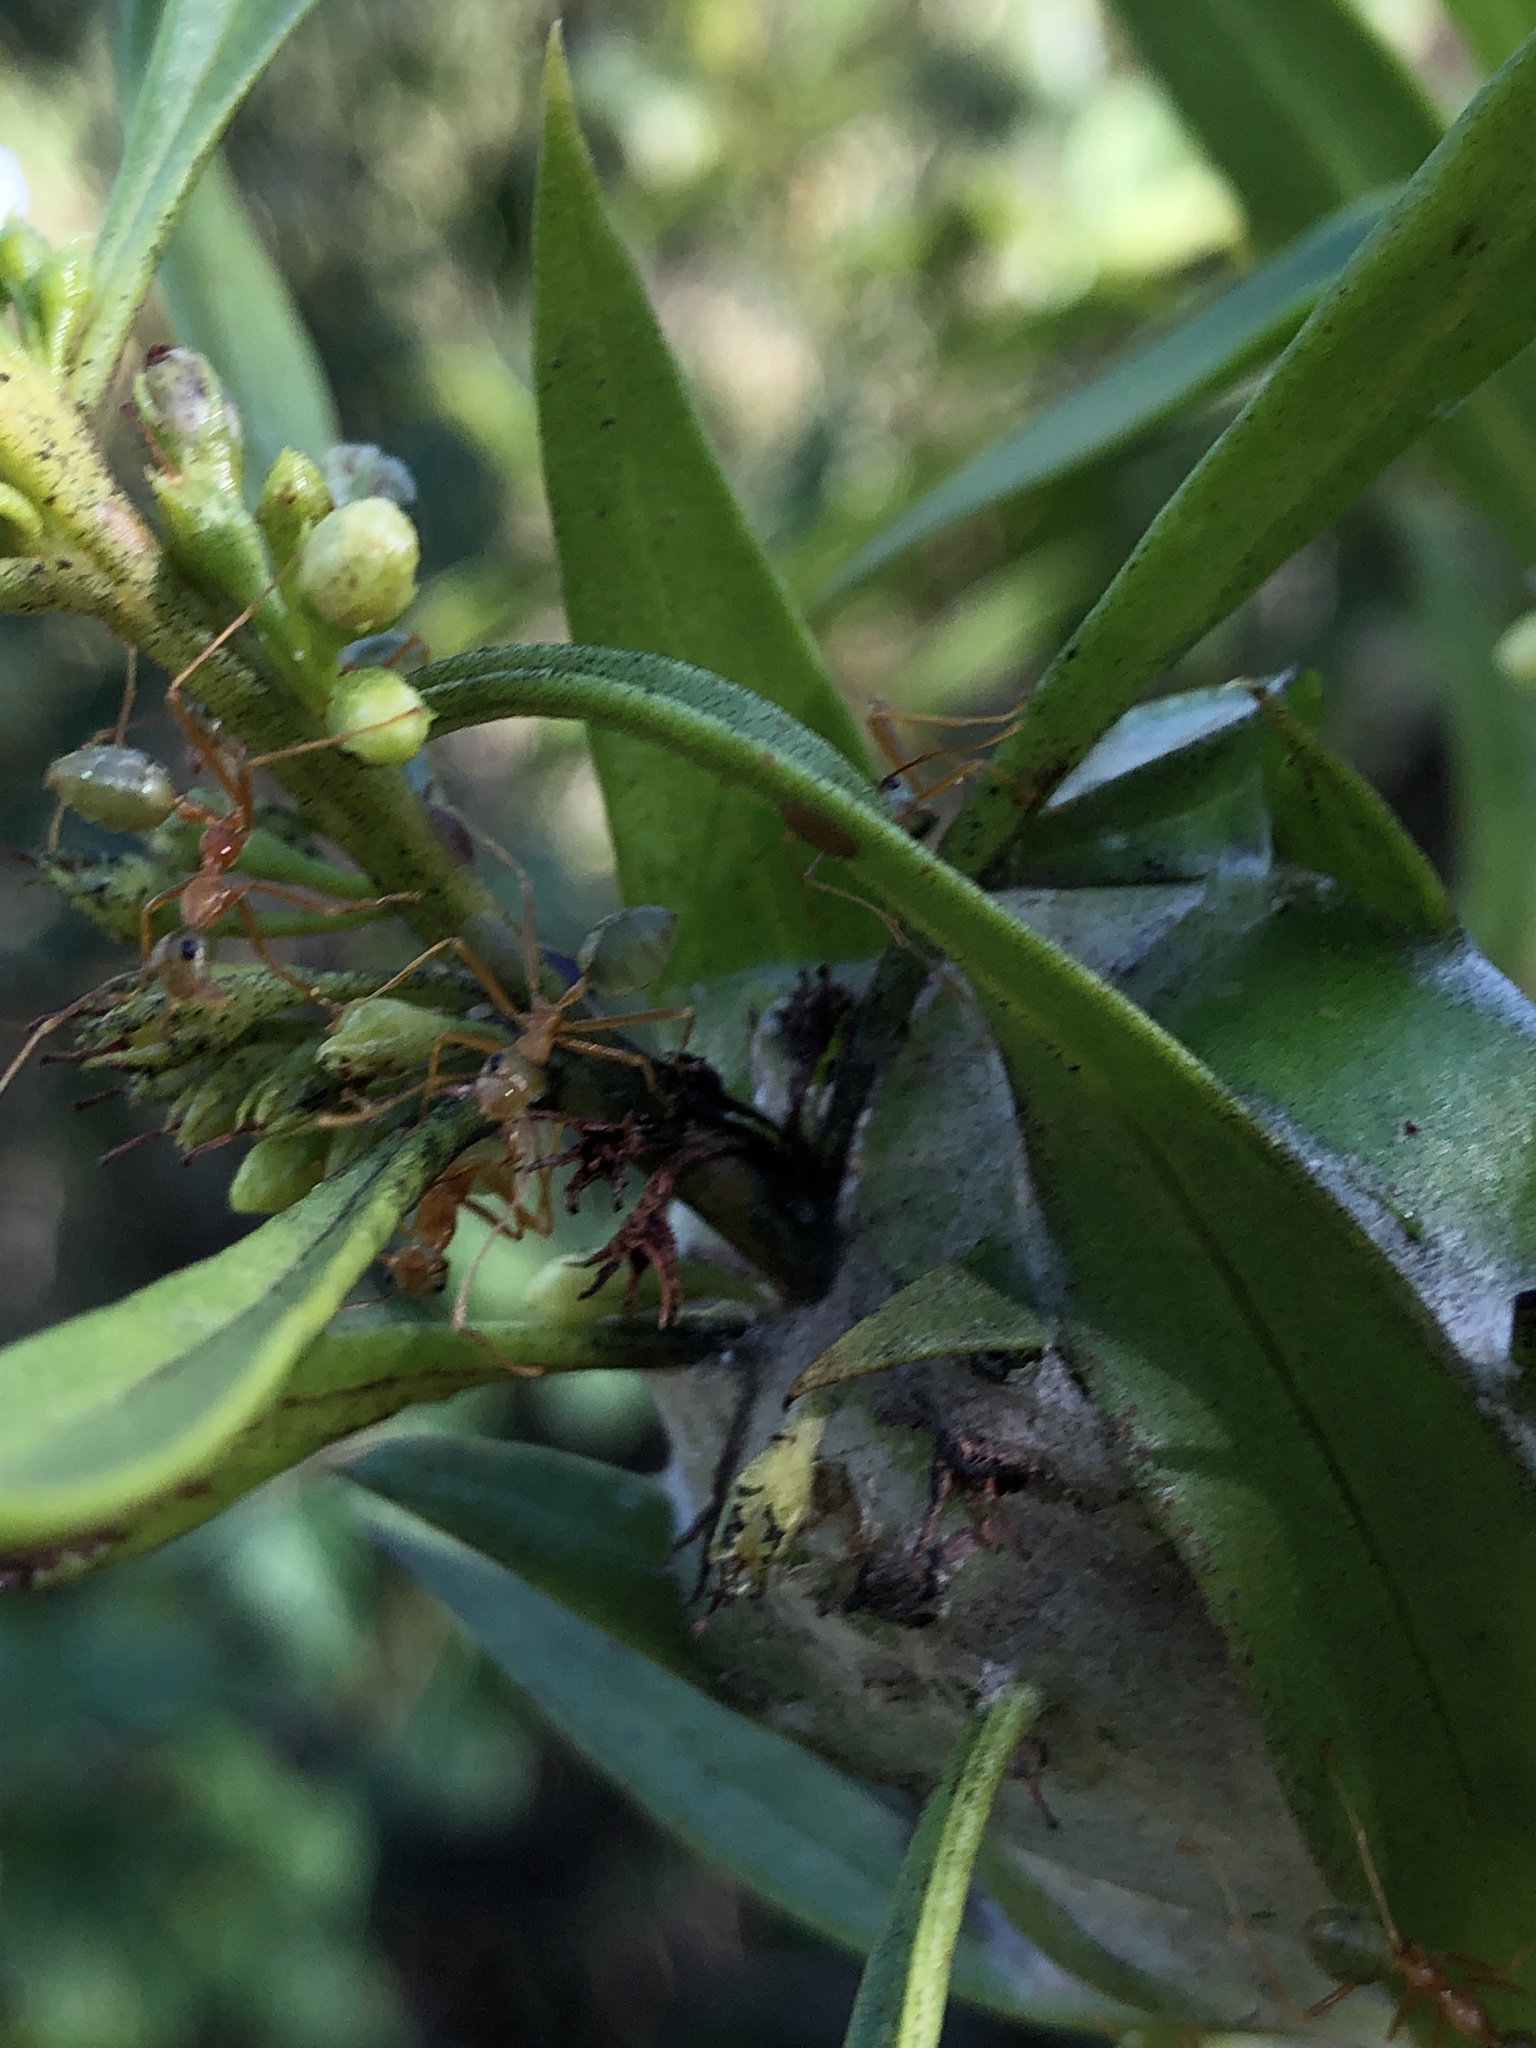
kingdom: Animalia
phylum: Arthropoda
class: Insecta
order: Hymenoptera
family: Formicidae
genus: Oecophylla
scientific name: Oecophylla smaragdina
